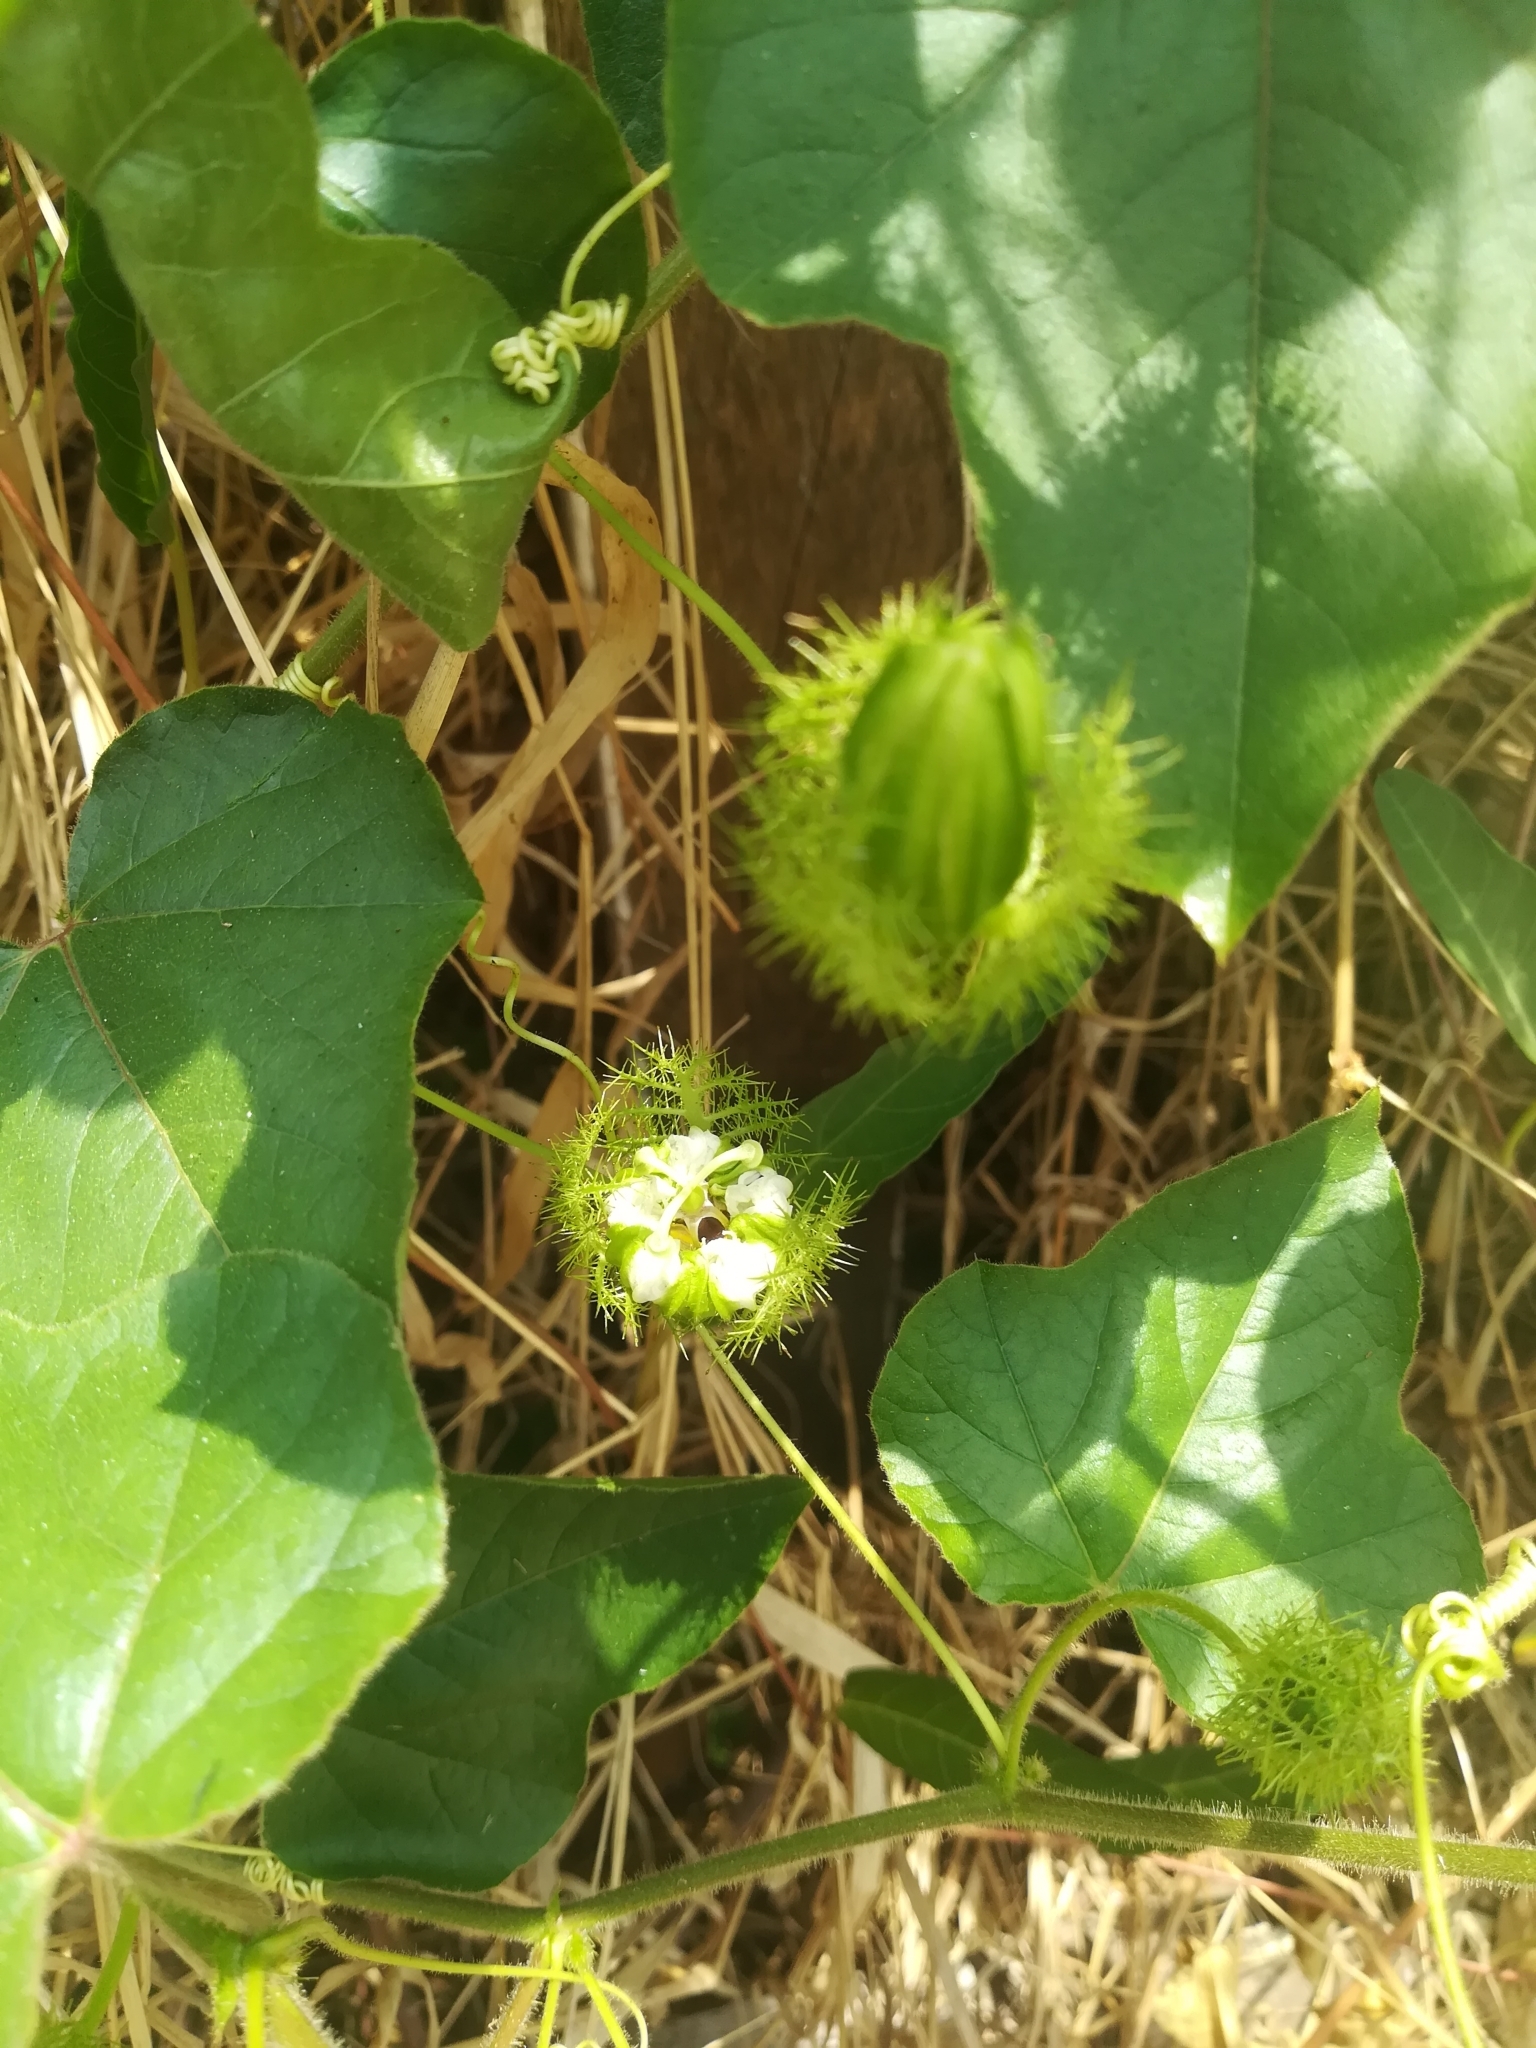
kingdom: Plantae
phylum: Tracheophyta
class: Magnoliopsida
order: Malpighiales
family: Passifloraceae
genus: Passiflora
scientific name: Passiflora foetida
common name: Fetid passionflower
